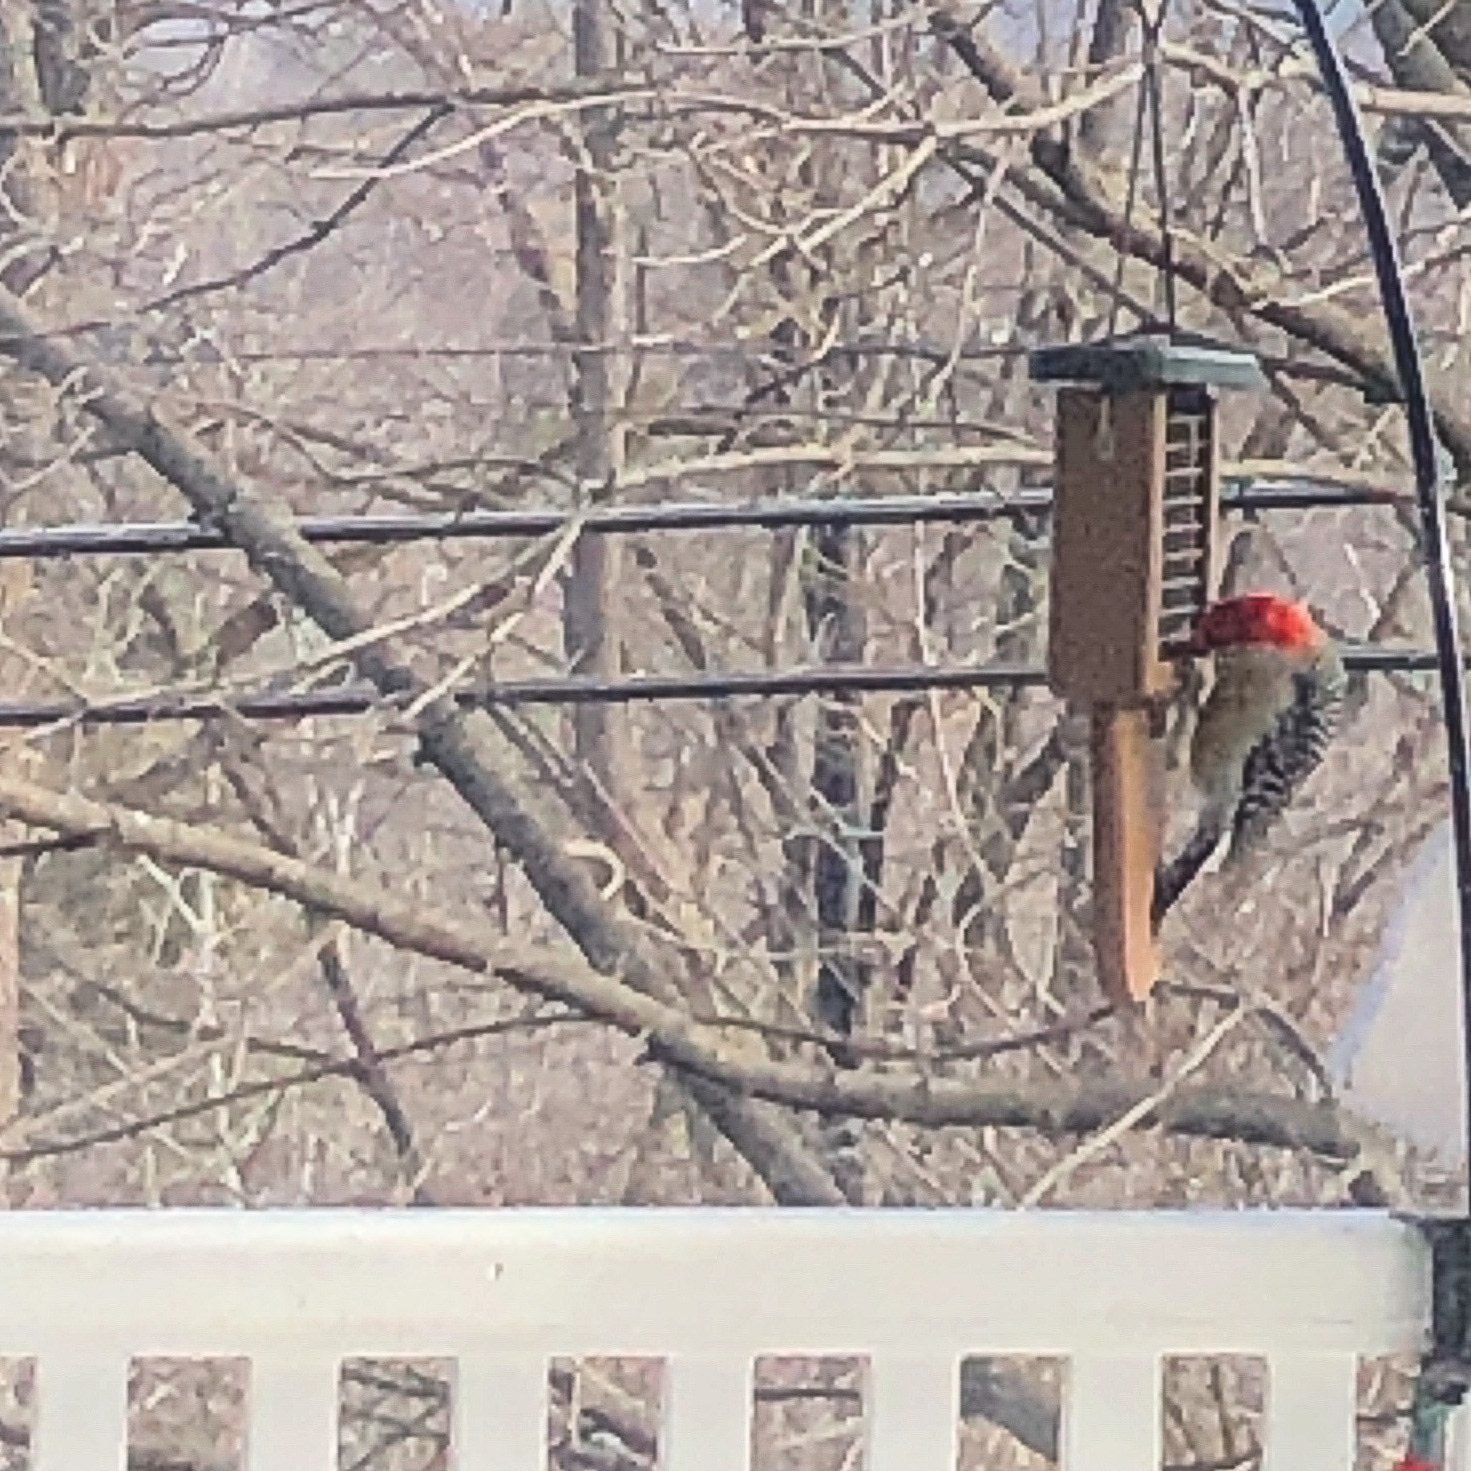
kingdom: Animalia
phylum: Chordata
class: Aves
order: Piciformes
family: Picidae
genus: Melanerpes
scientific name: Melanerpes carolinus
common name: Red-bellied woodpecker
